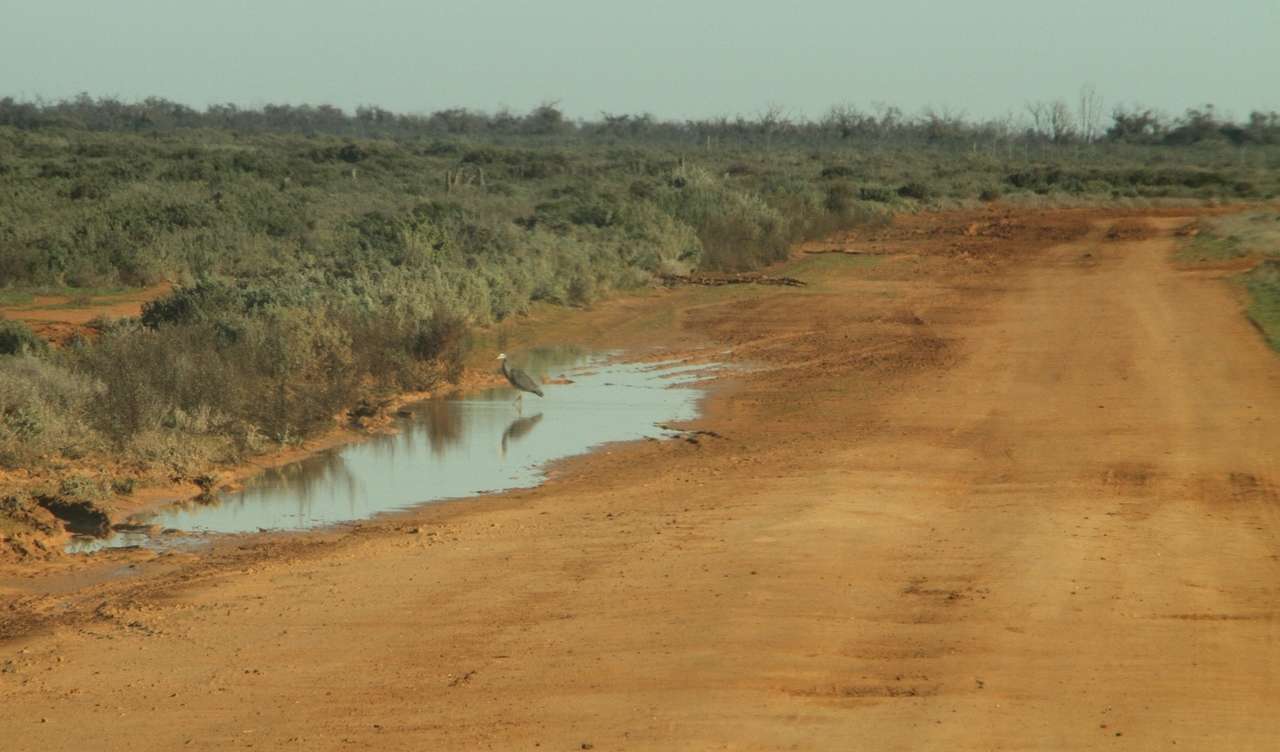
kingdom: Animalia
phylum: Chordata
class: Aves
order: Pelecaniformes
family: Ardeidae
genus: Egretta
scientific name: Egretta novaehollandiae
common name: White-faced heron
